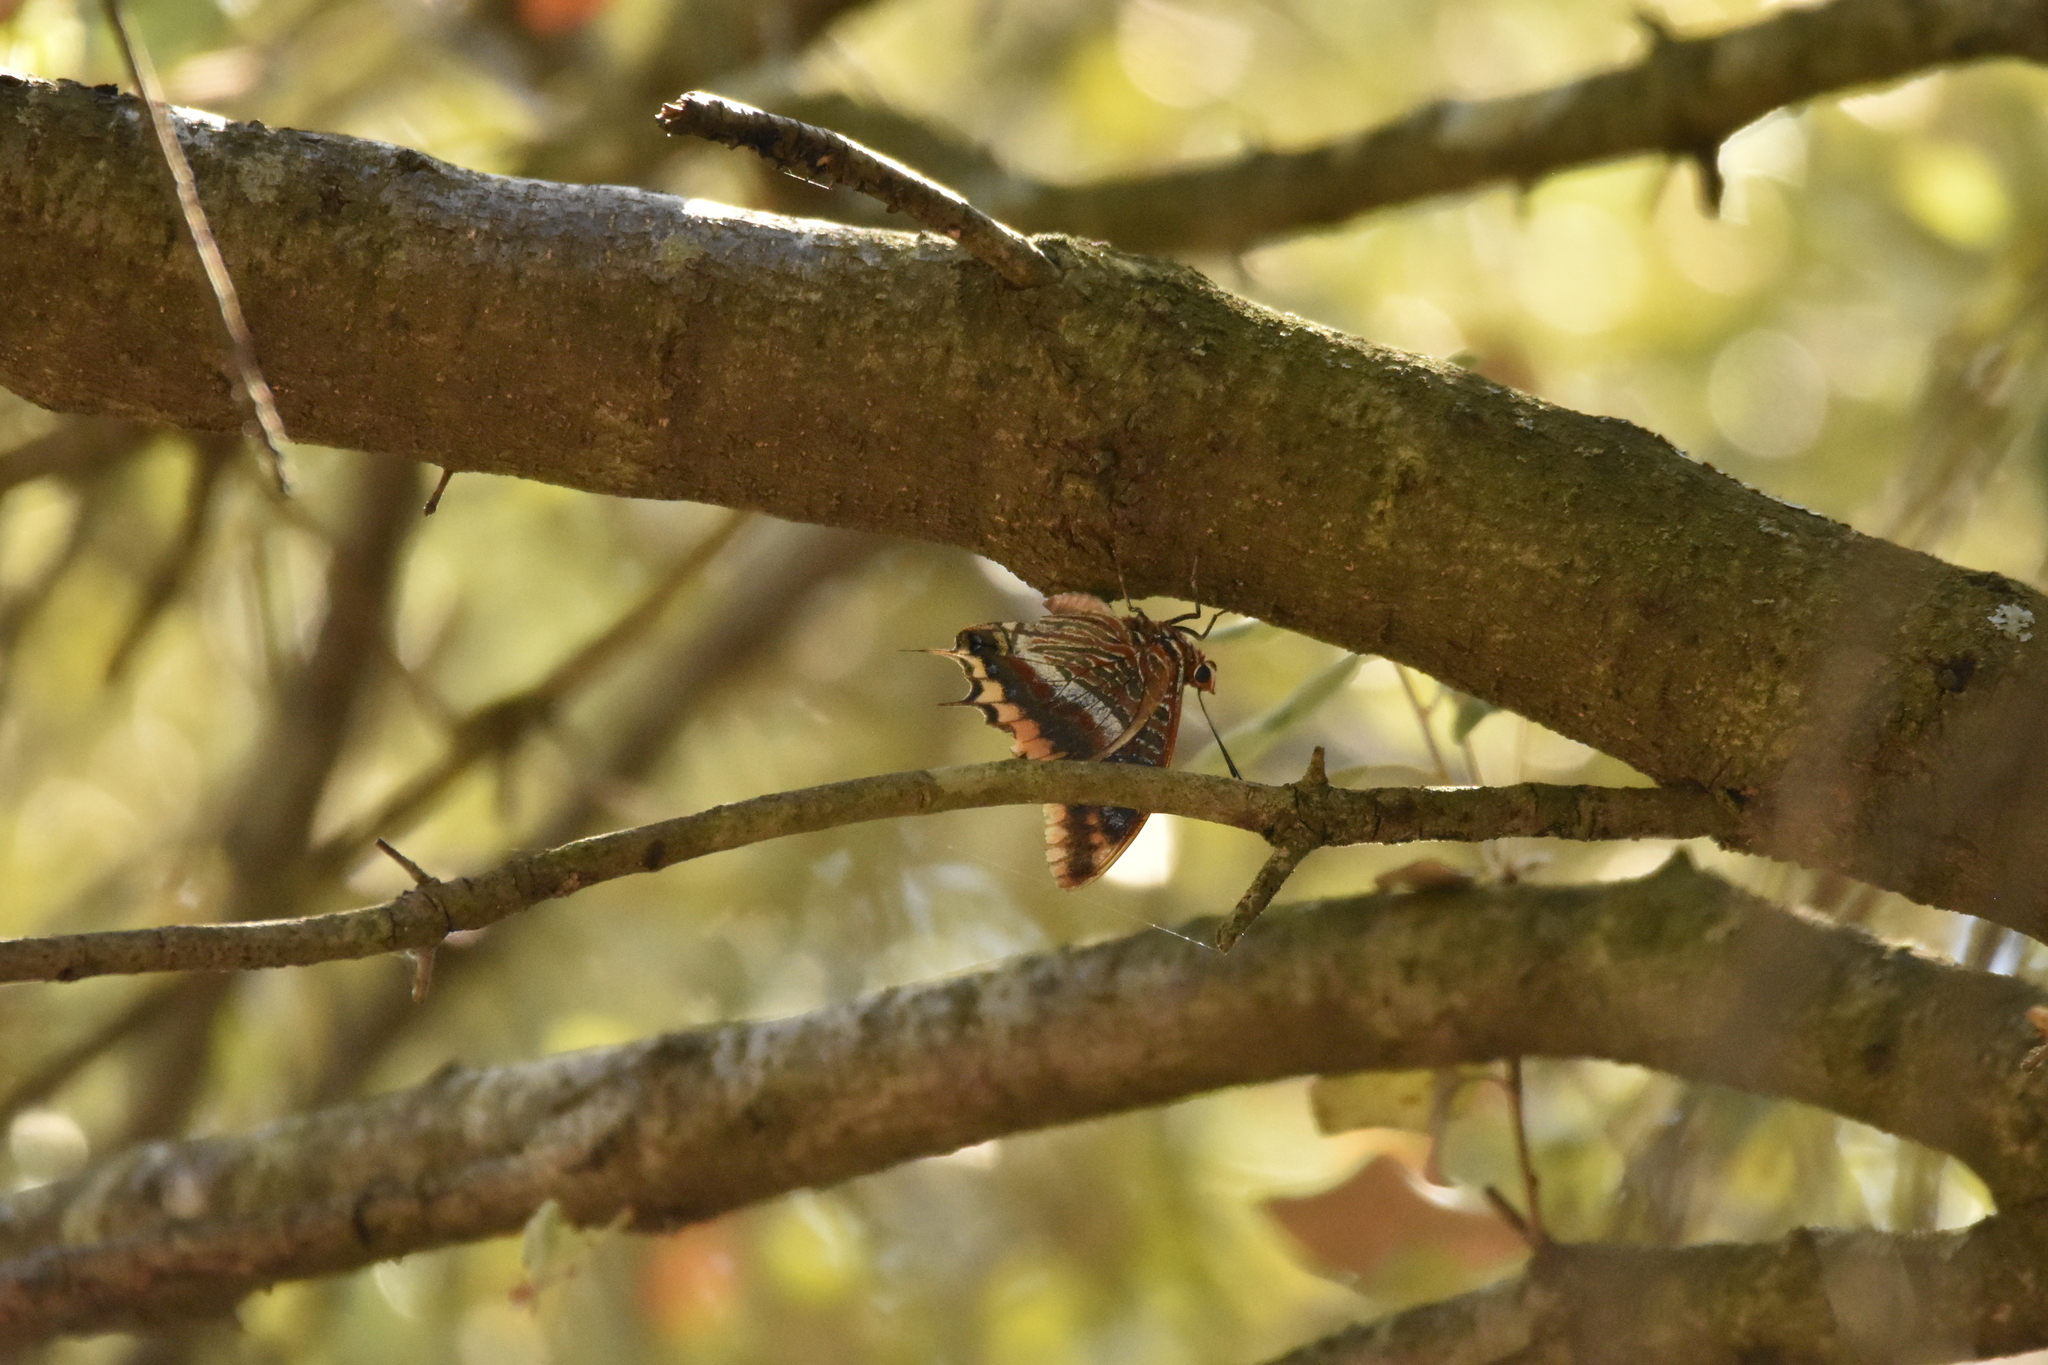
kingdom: Animalia
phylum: Arthropoda
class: Insecta
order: Lepidoptera
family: Nymphalidae
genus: Charaxes
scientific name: Charaxes jasius
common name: Two tailed pasha
